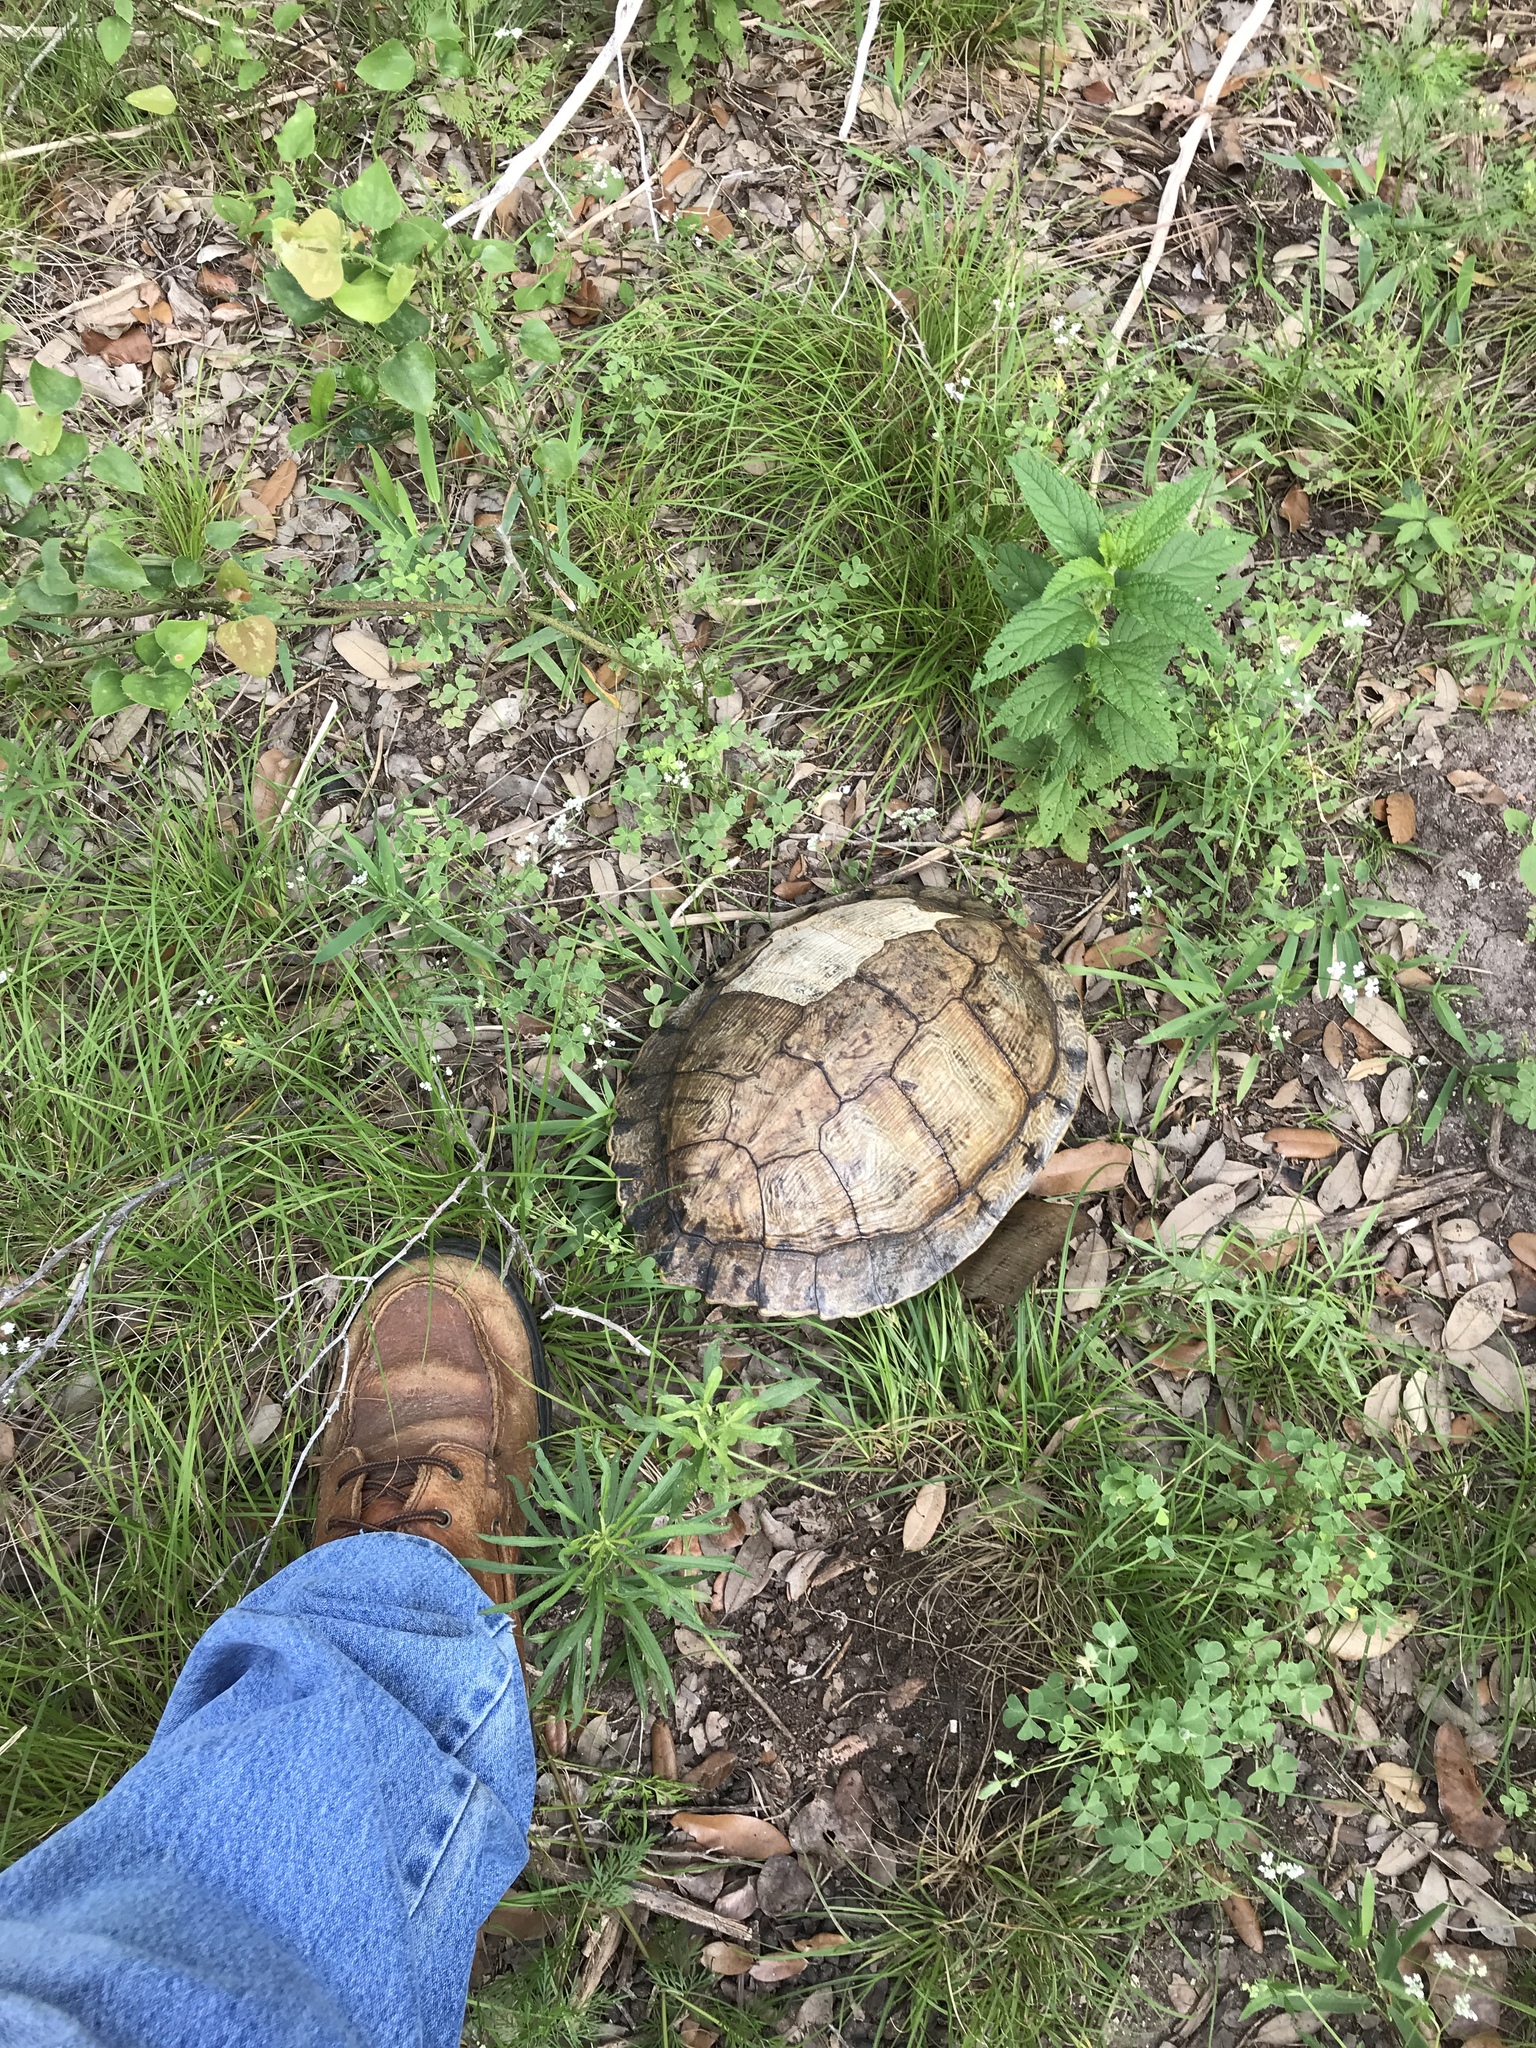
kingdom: Animalia
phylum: Chordata
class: Testudines
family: Emydidae
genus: Trachemys
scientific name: Trachemys scripta
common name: Slider
